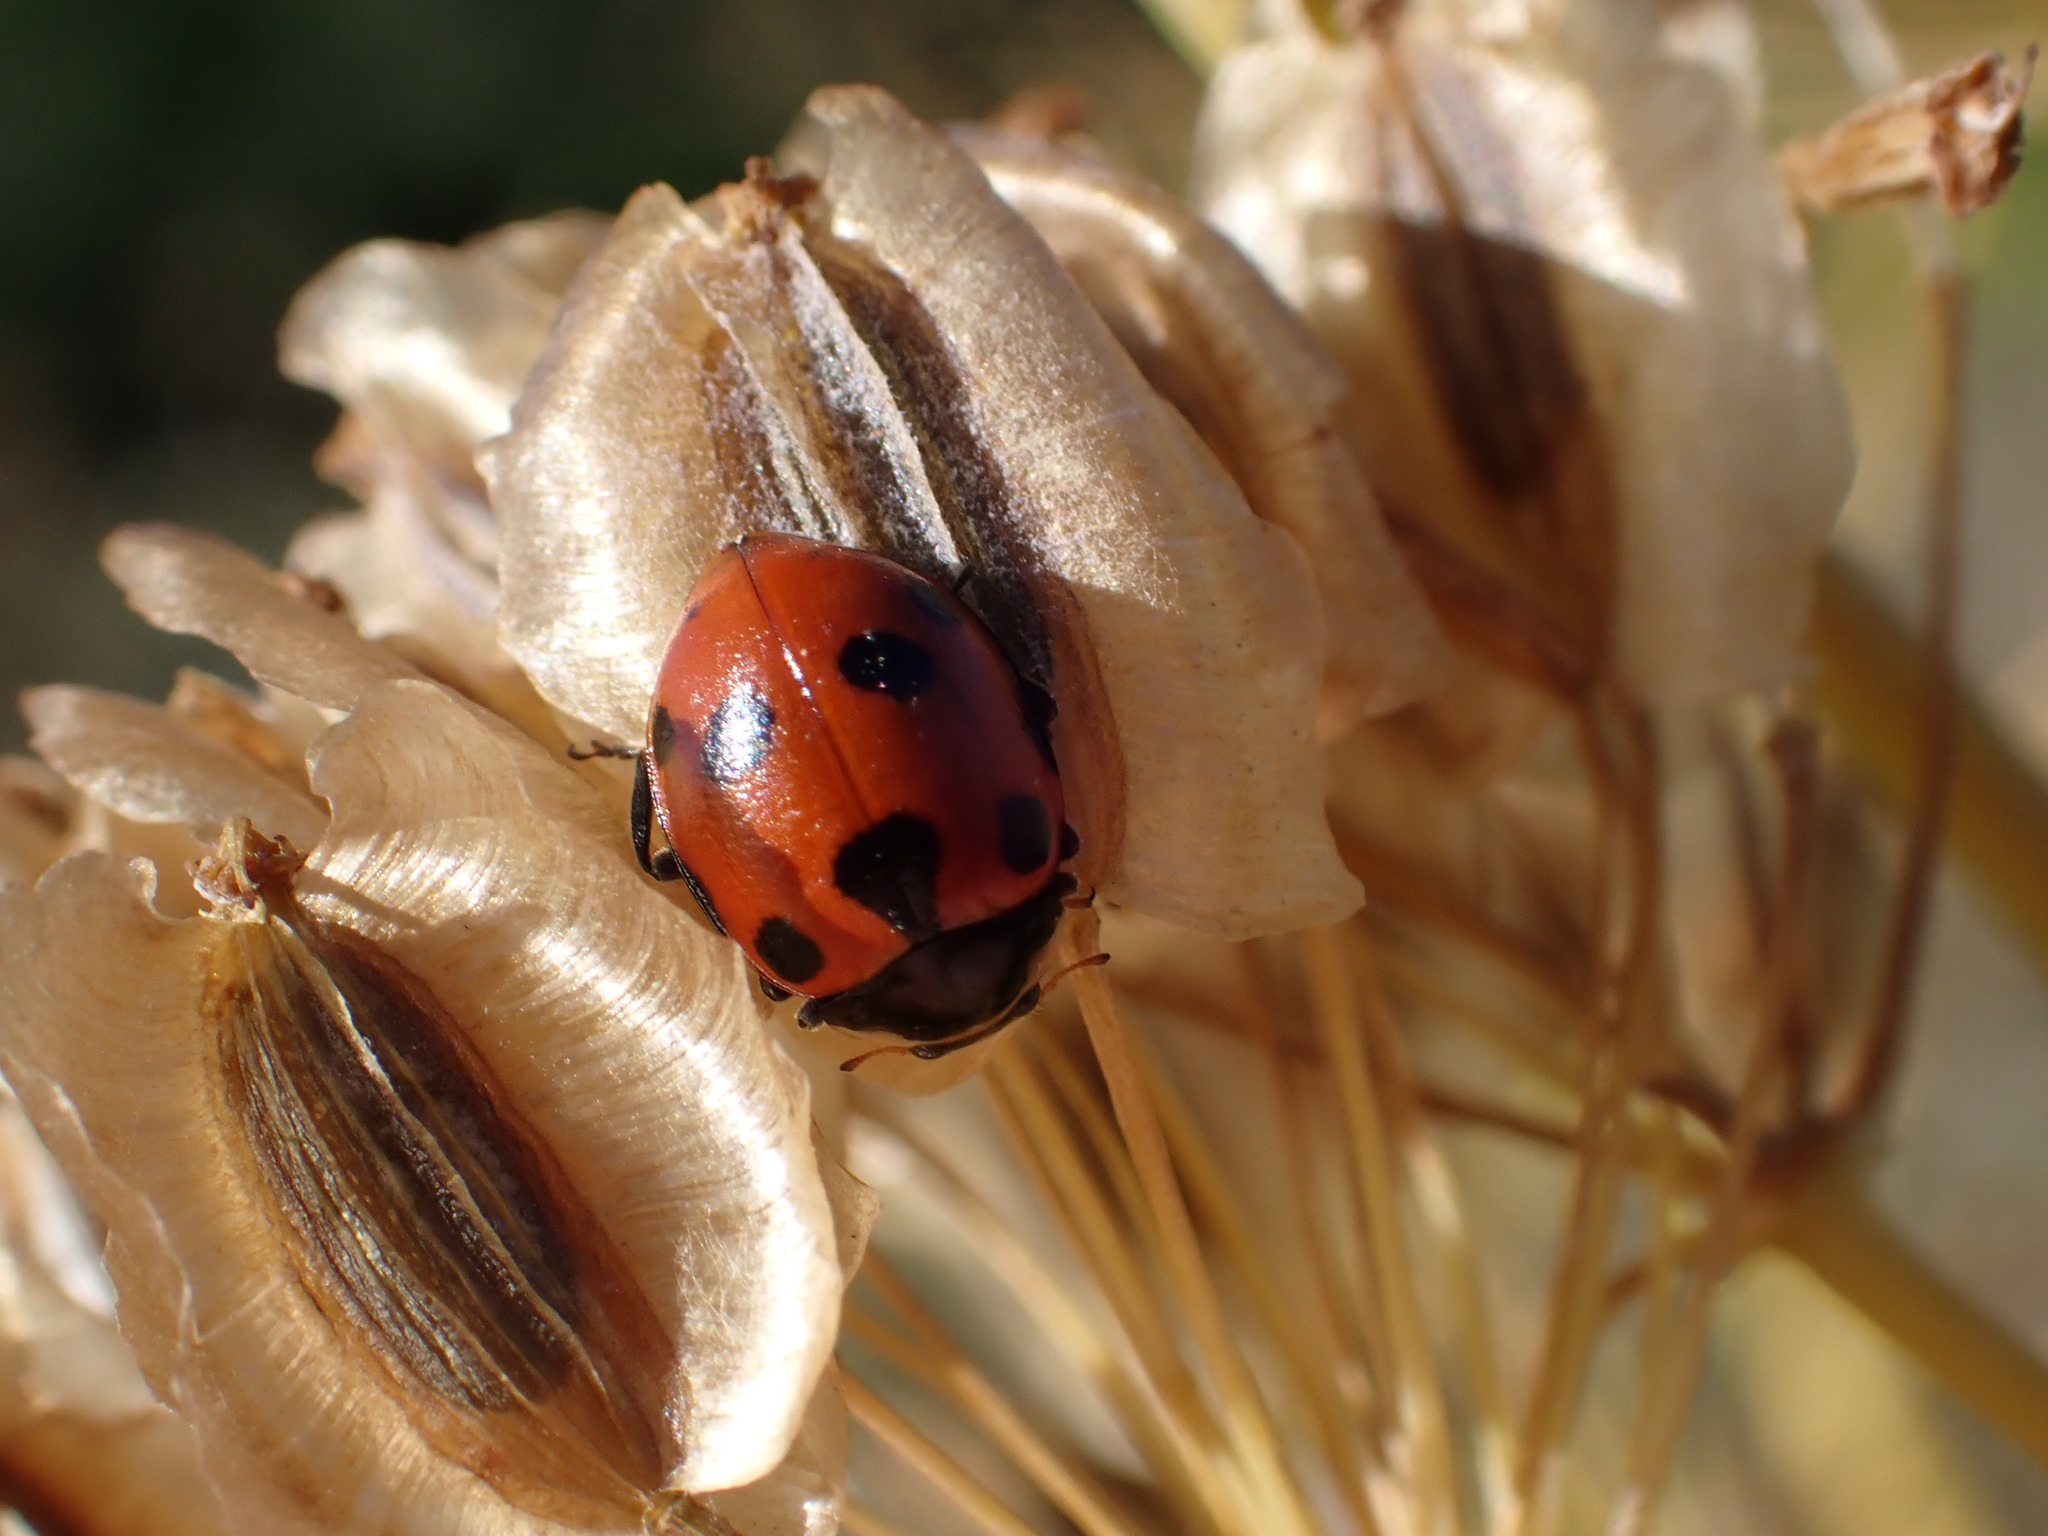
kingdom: Animalia
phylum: Arthropoda
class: Insecta
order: Coleoptera
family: Coccinellidae
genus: Ceratomegilla
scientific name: Ceratomegilla undecimnotata
